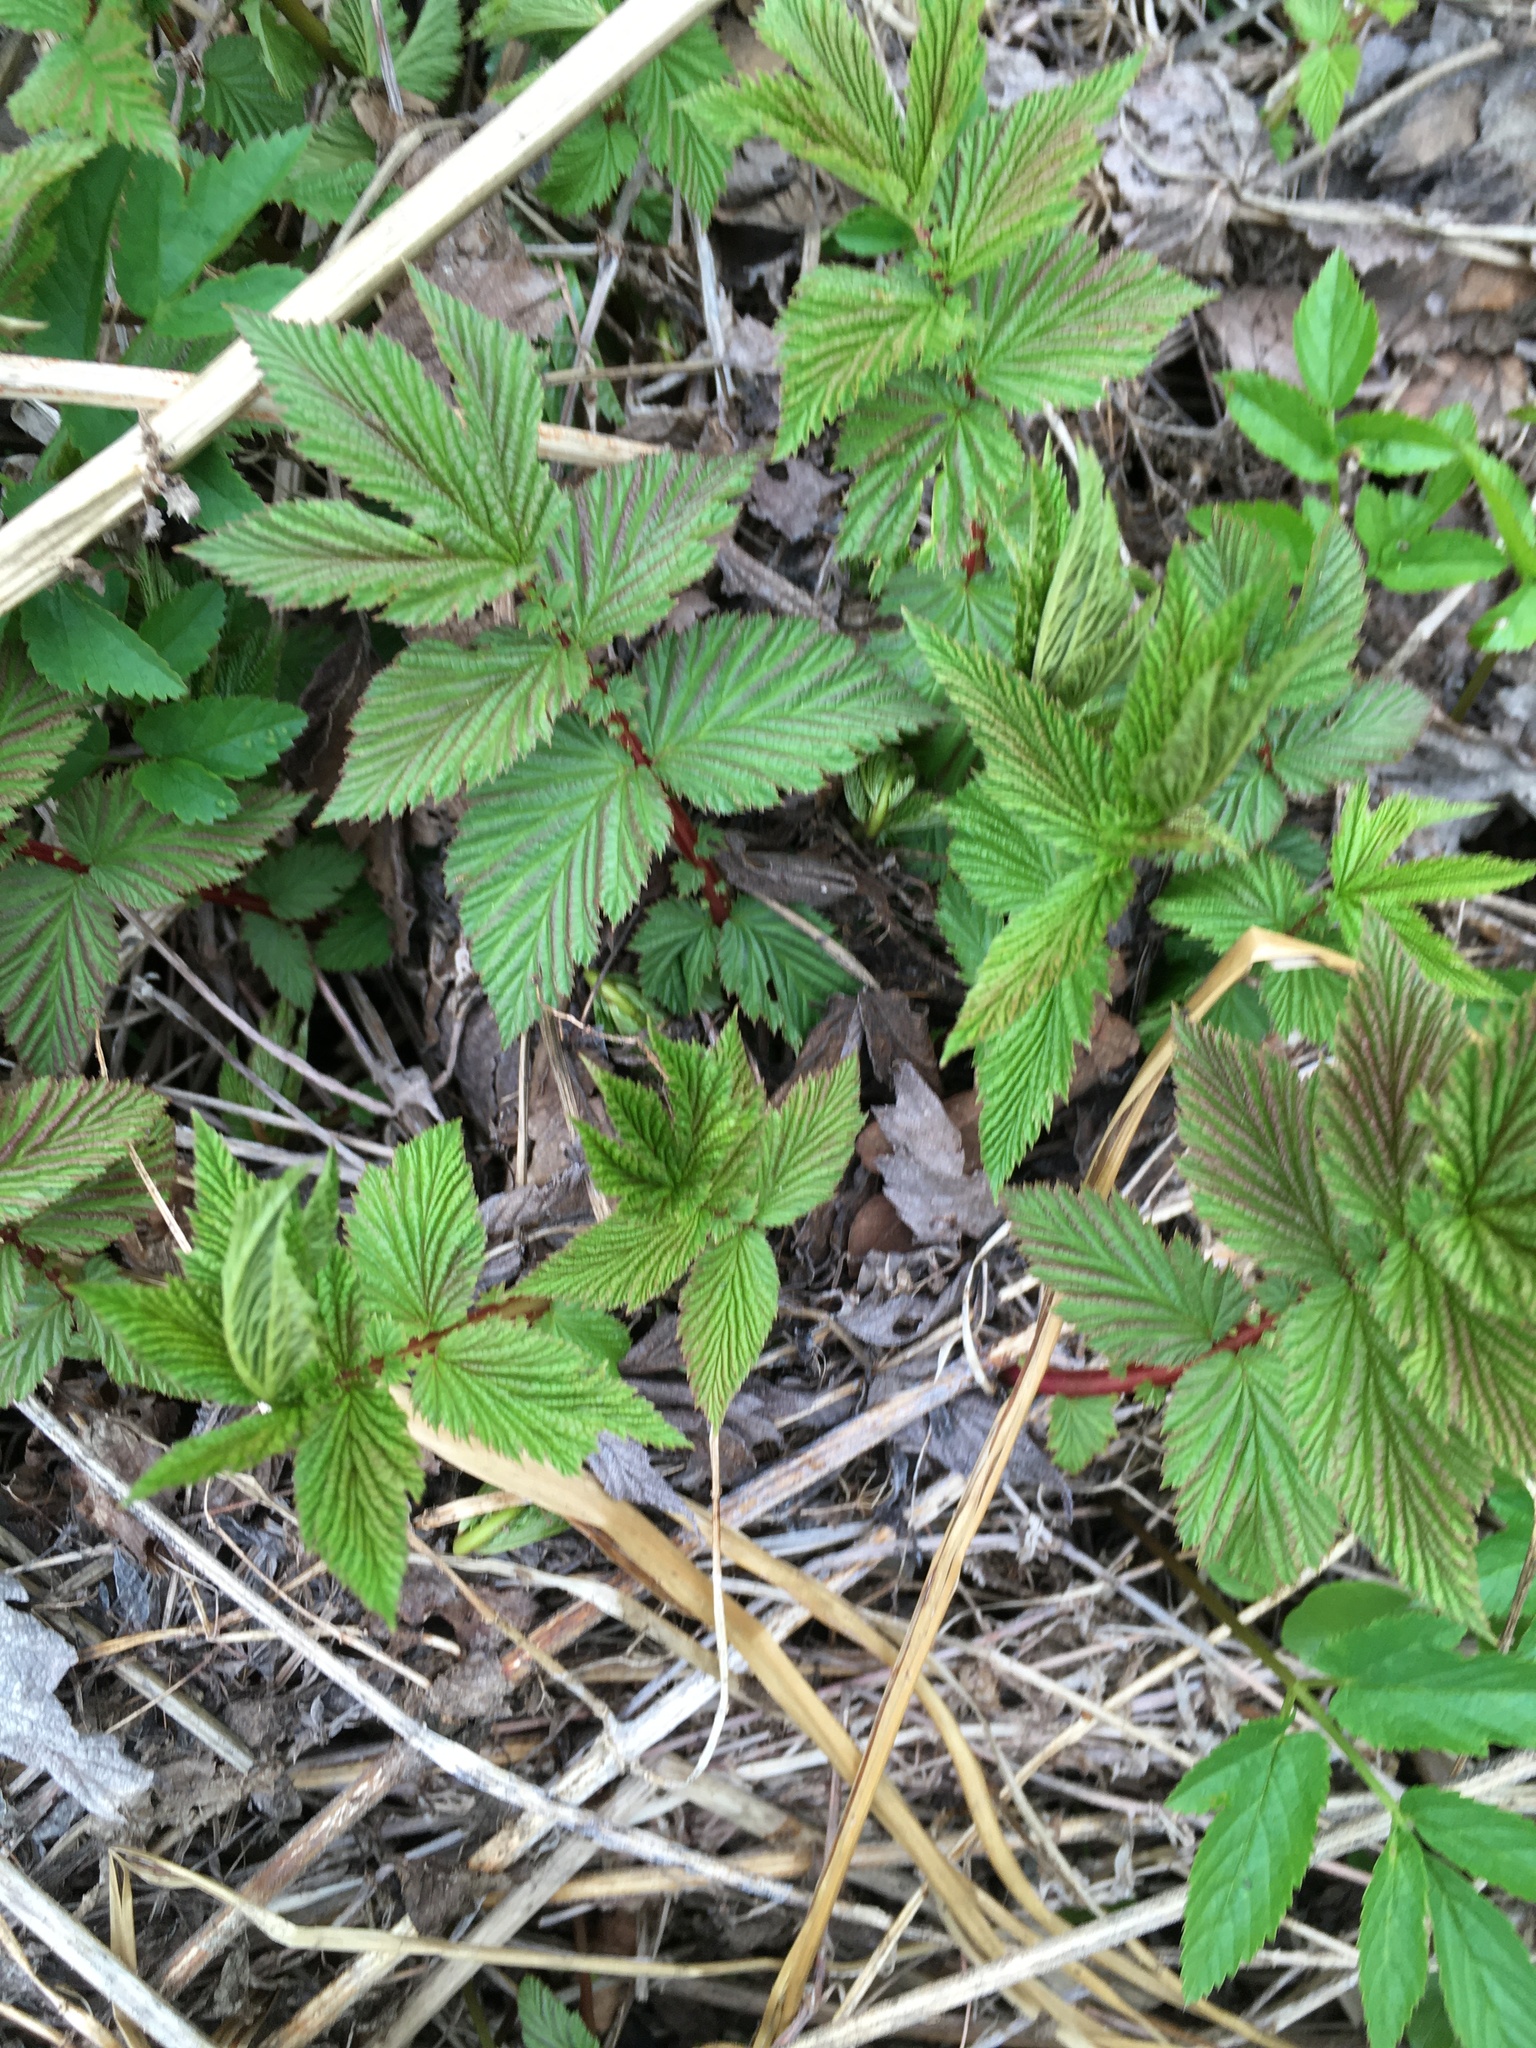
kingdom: Plantae
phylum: Tracheophyta
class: Magnoliopsida
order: Rosales
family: Rosaceae
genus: Filipendula
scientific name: Filipendula ulmaria
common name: Meadowsweet
